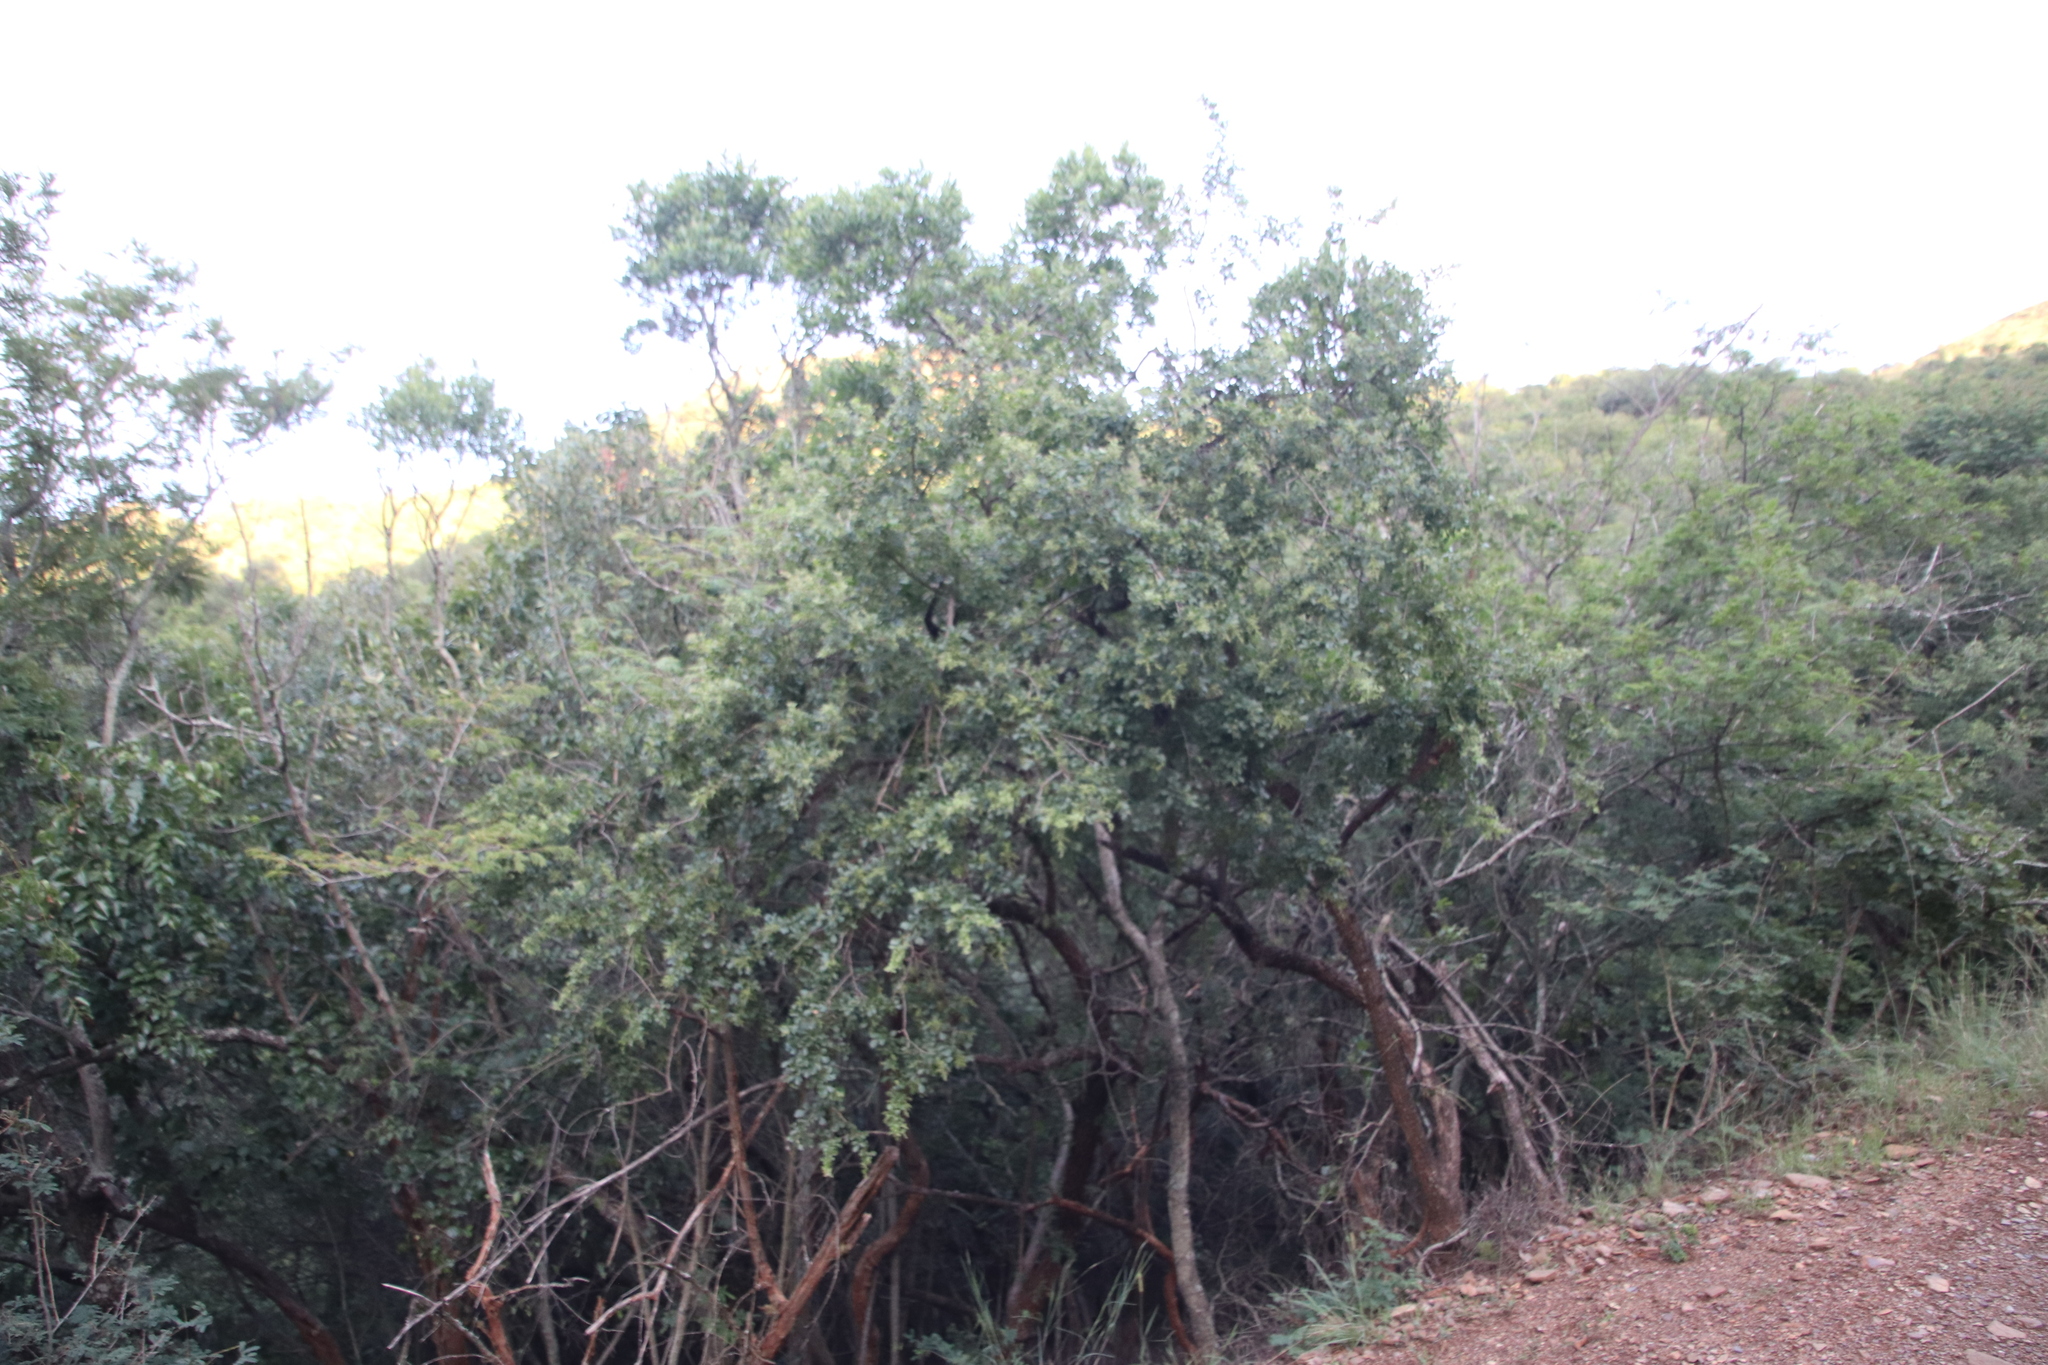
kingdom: Plantae
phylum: Tracheophyta
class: Magnoliopsida
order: Sapindales
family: Anacardiaceae
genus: Searsia
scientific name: Searsia pentheri
